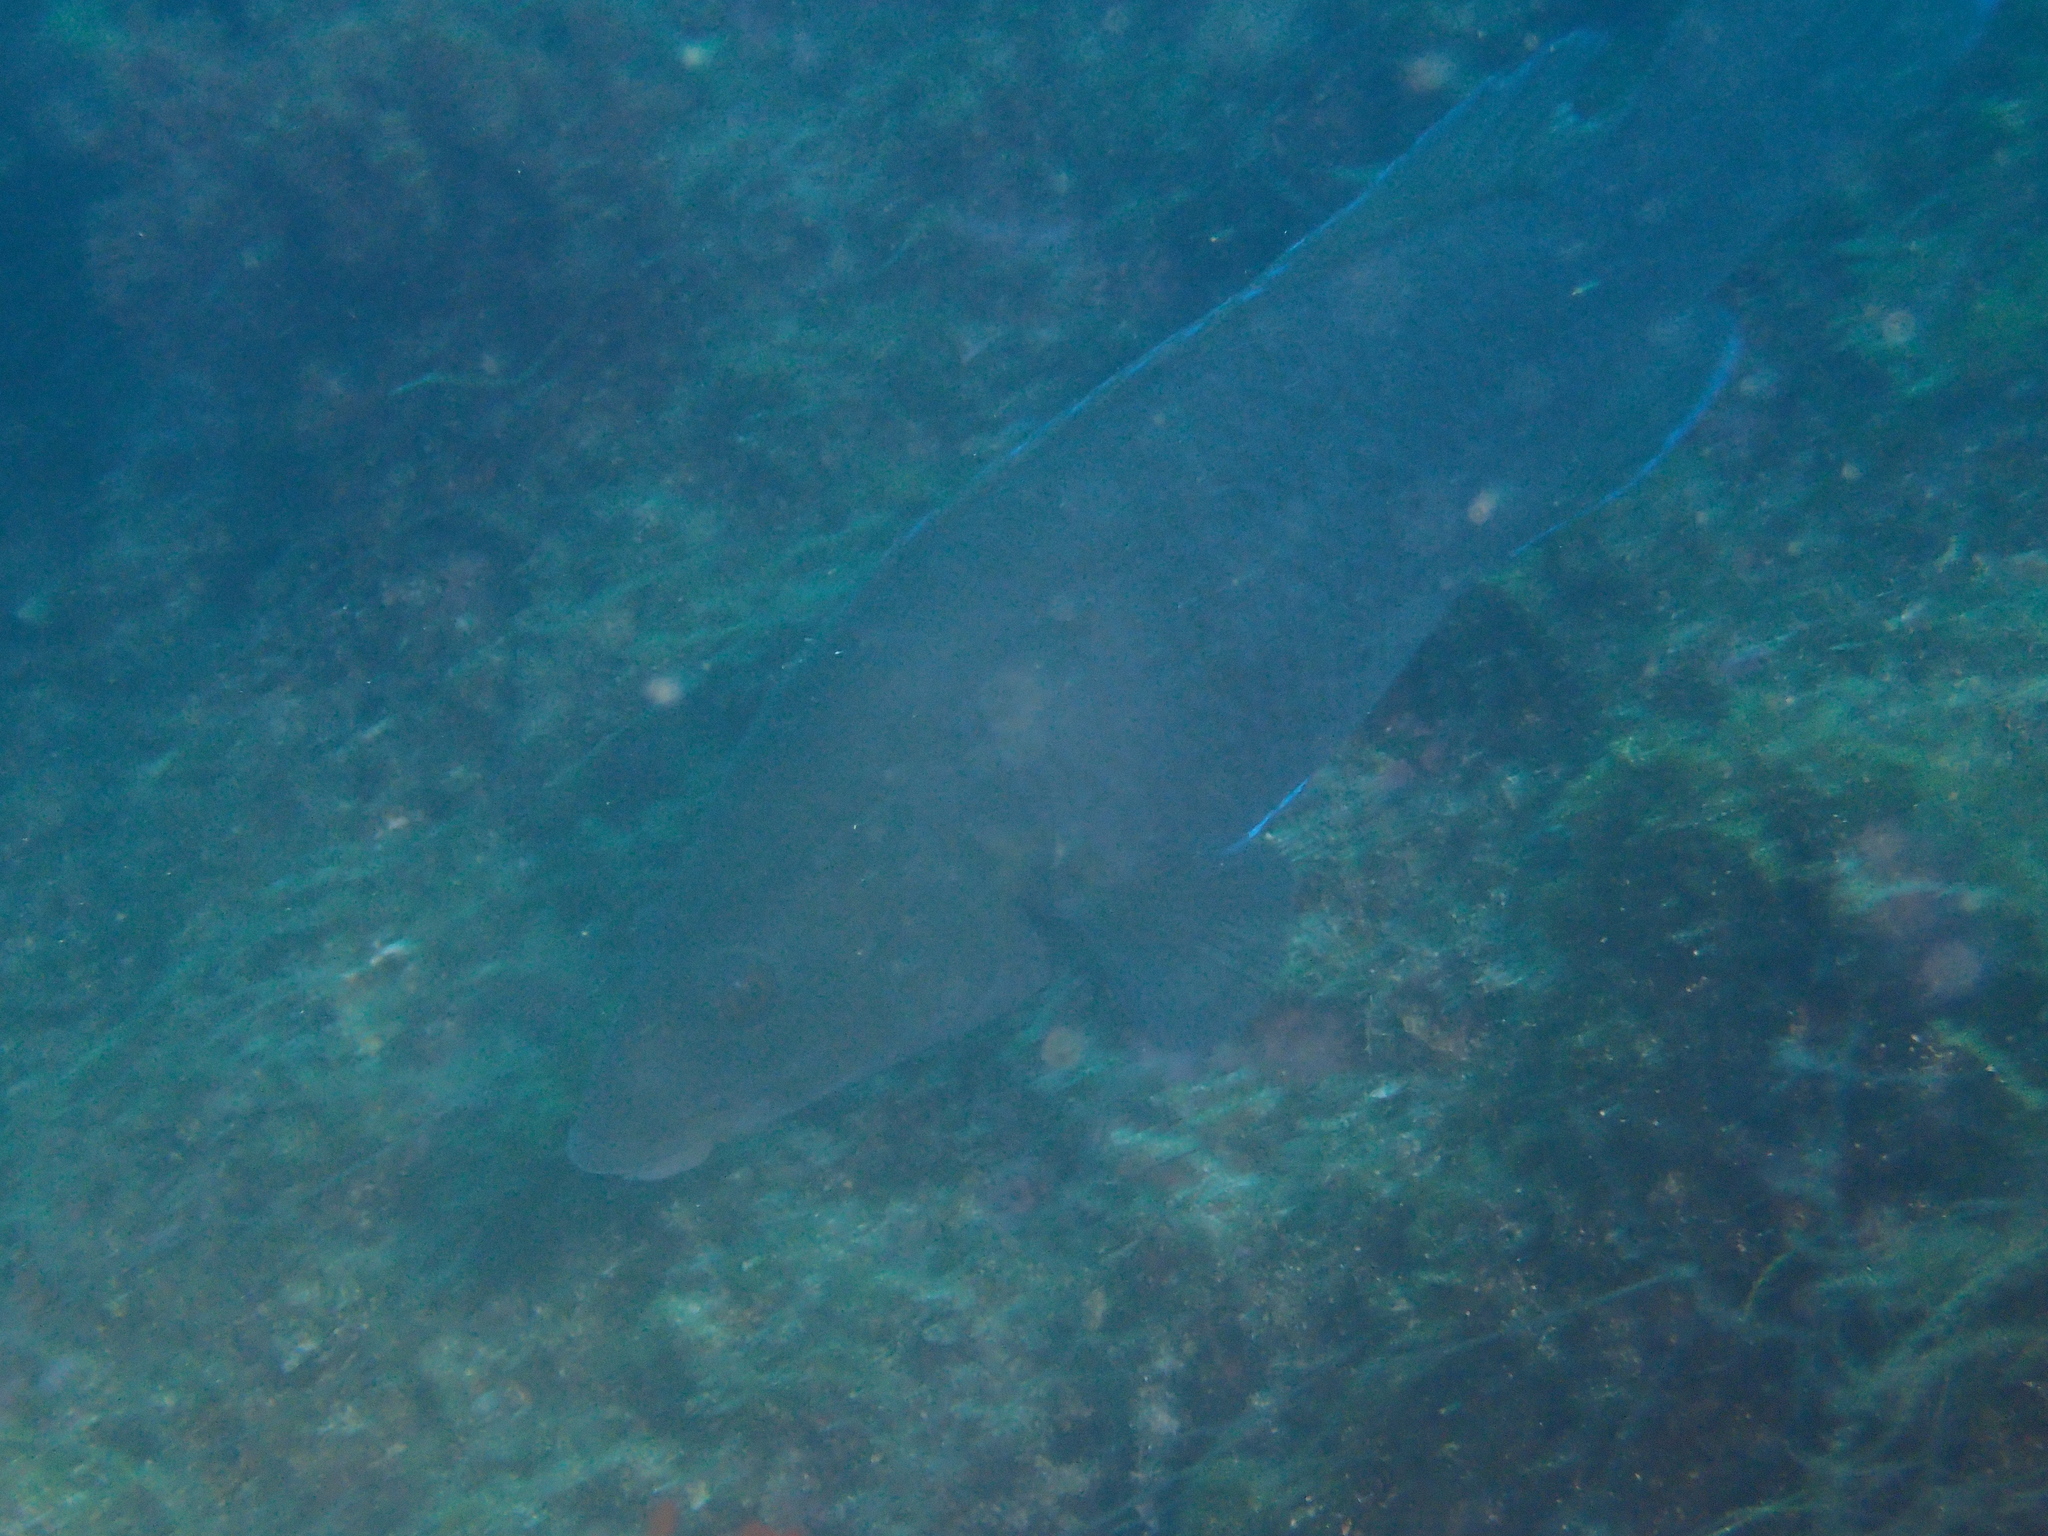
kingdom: Animalia
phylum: Chordata
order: Perciformes
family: Labridae
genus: Labrus
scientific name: Labrus merula
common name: Brown wrasse
